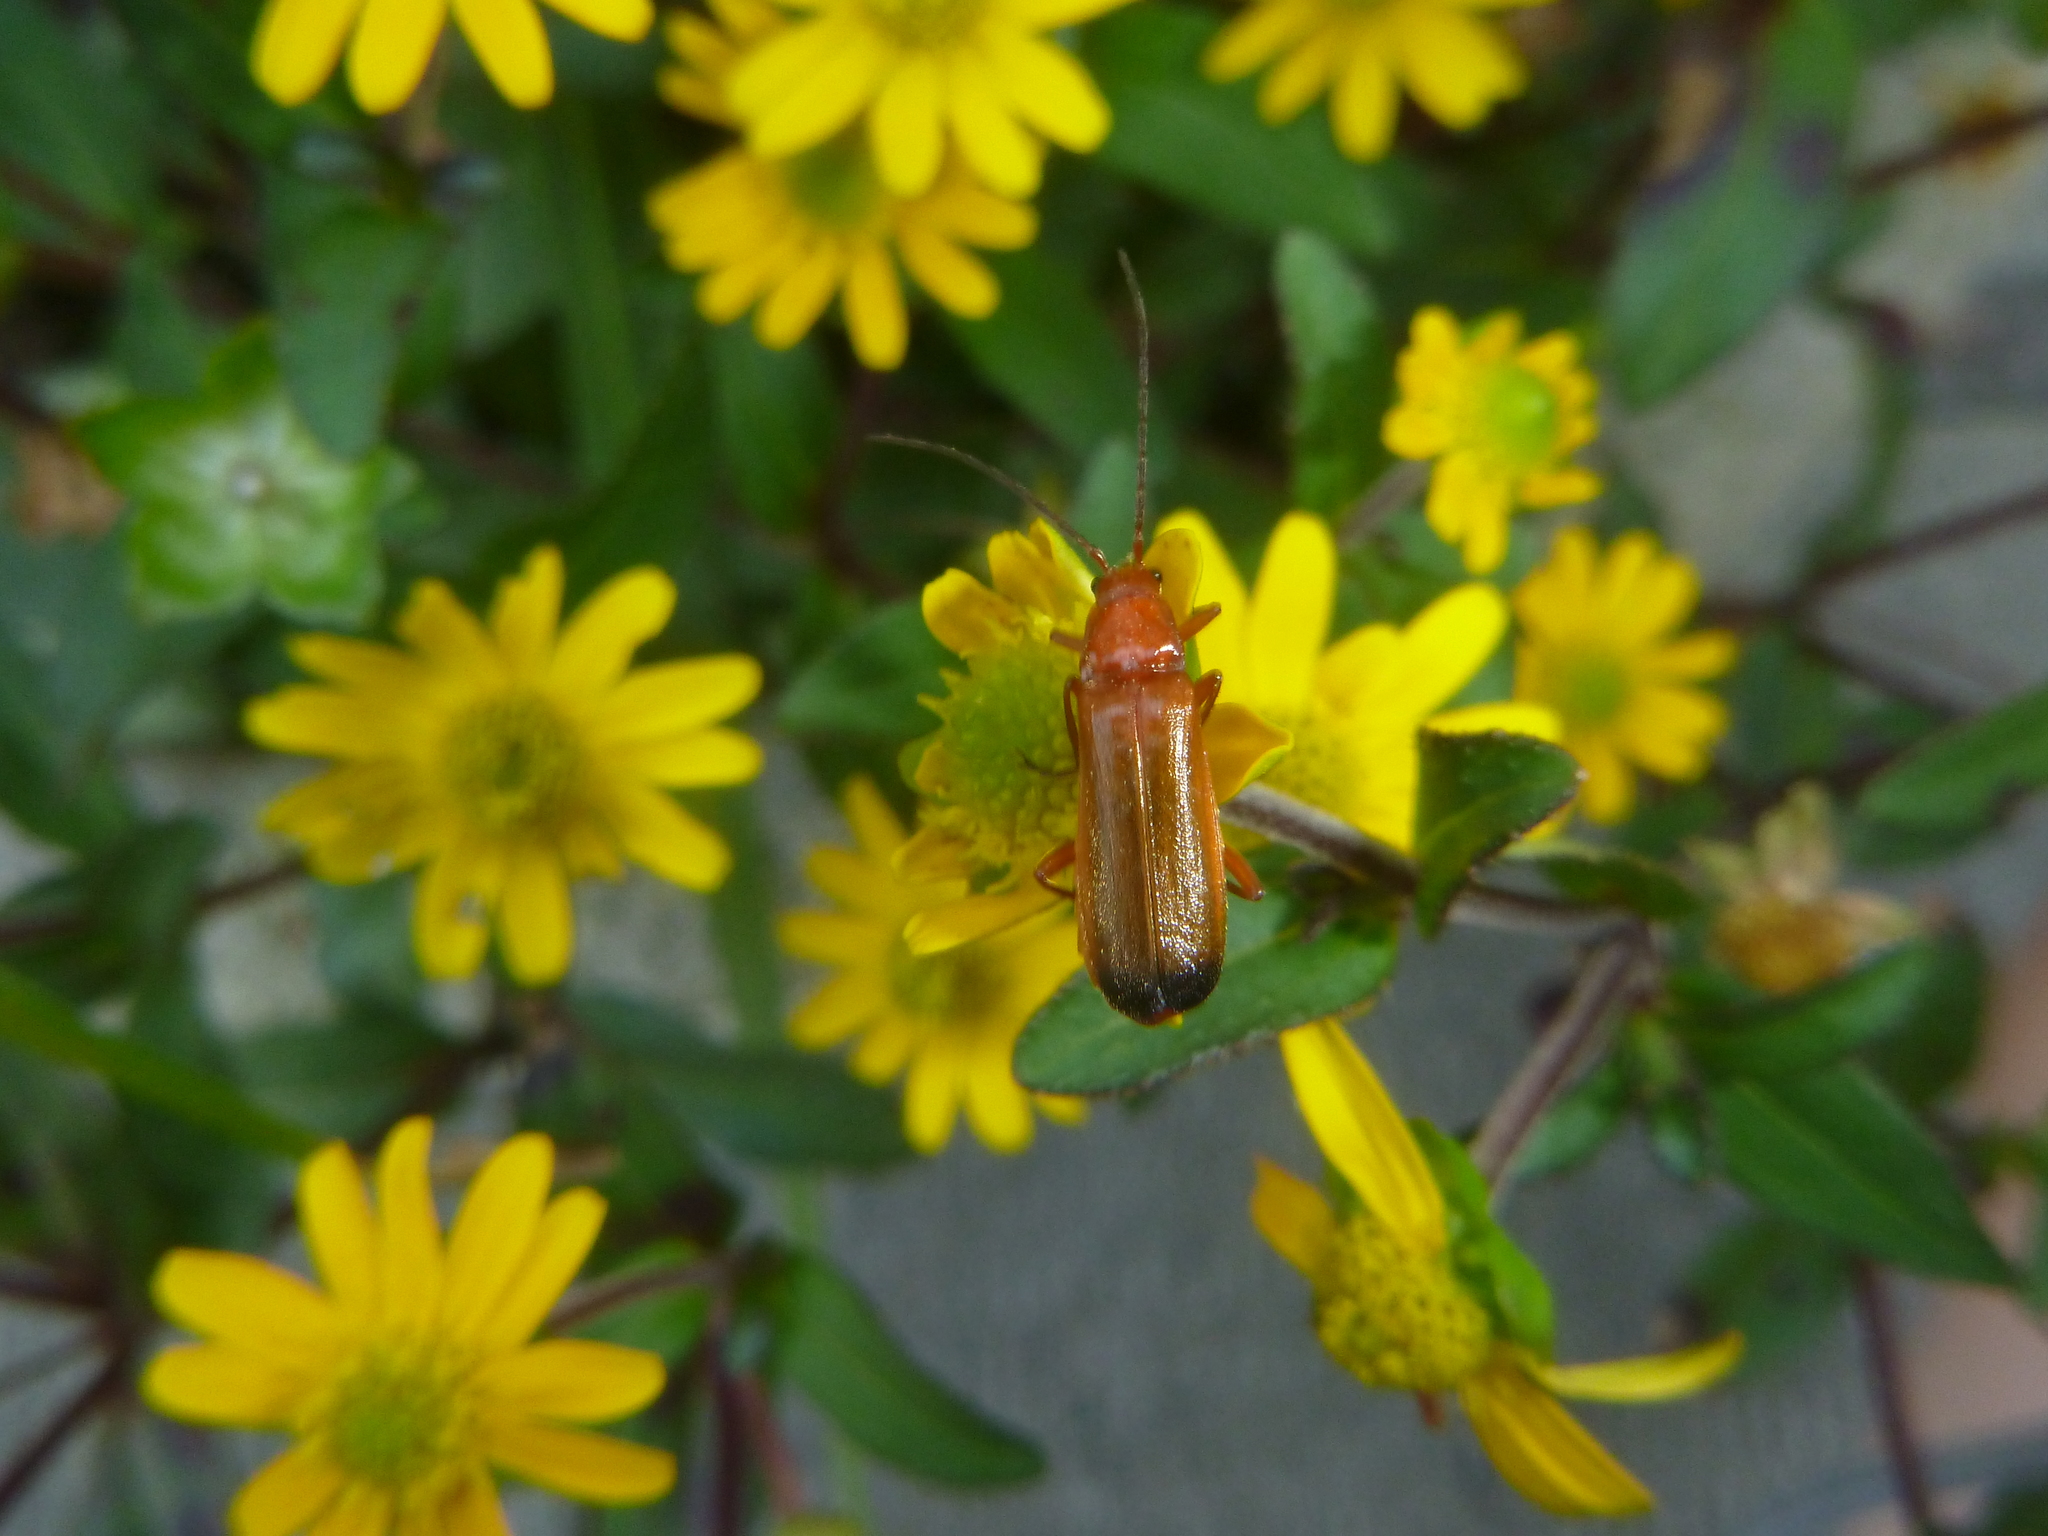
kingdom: Animalia
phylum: Arthropoda
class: Insecta
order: Coleoptera
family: Cantharidae
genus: Rhagonycha
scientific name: Rhagonycha fulva
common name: Common red soldier beetle
